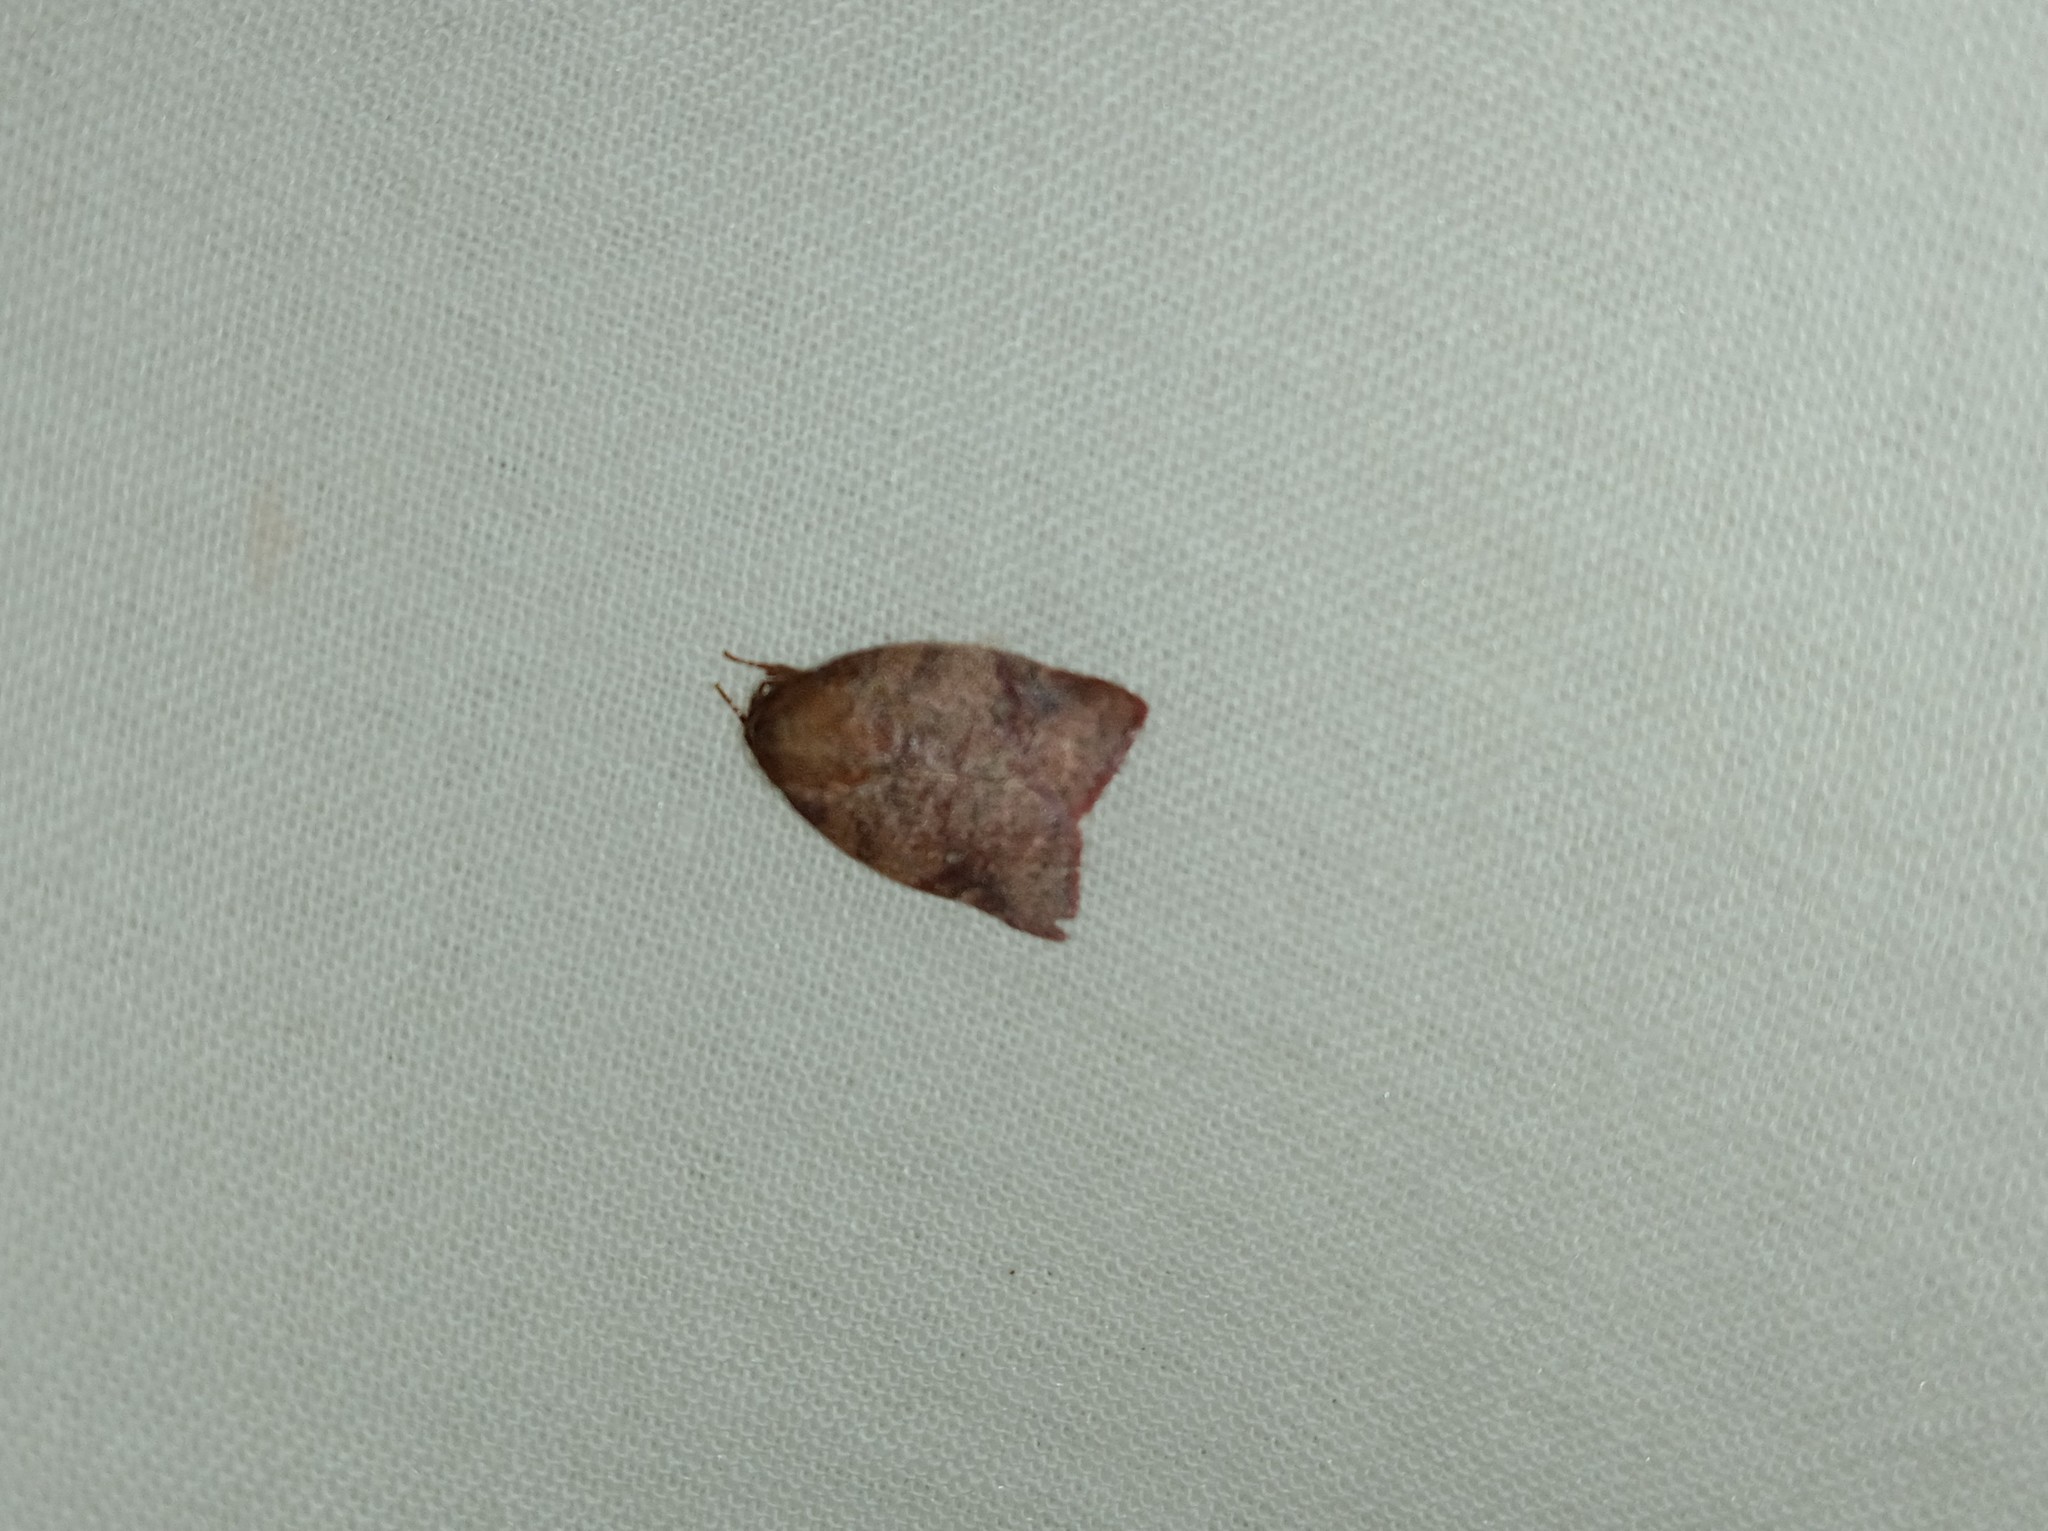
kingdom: Animalia
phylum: Arthropoda
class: Insecta
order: Lepidoptera
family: Nolidae
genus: Beara
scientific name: Beara dichromella
